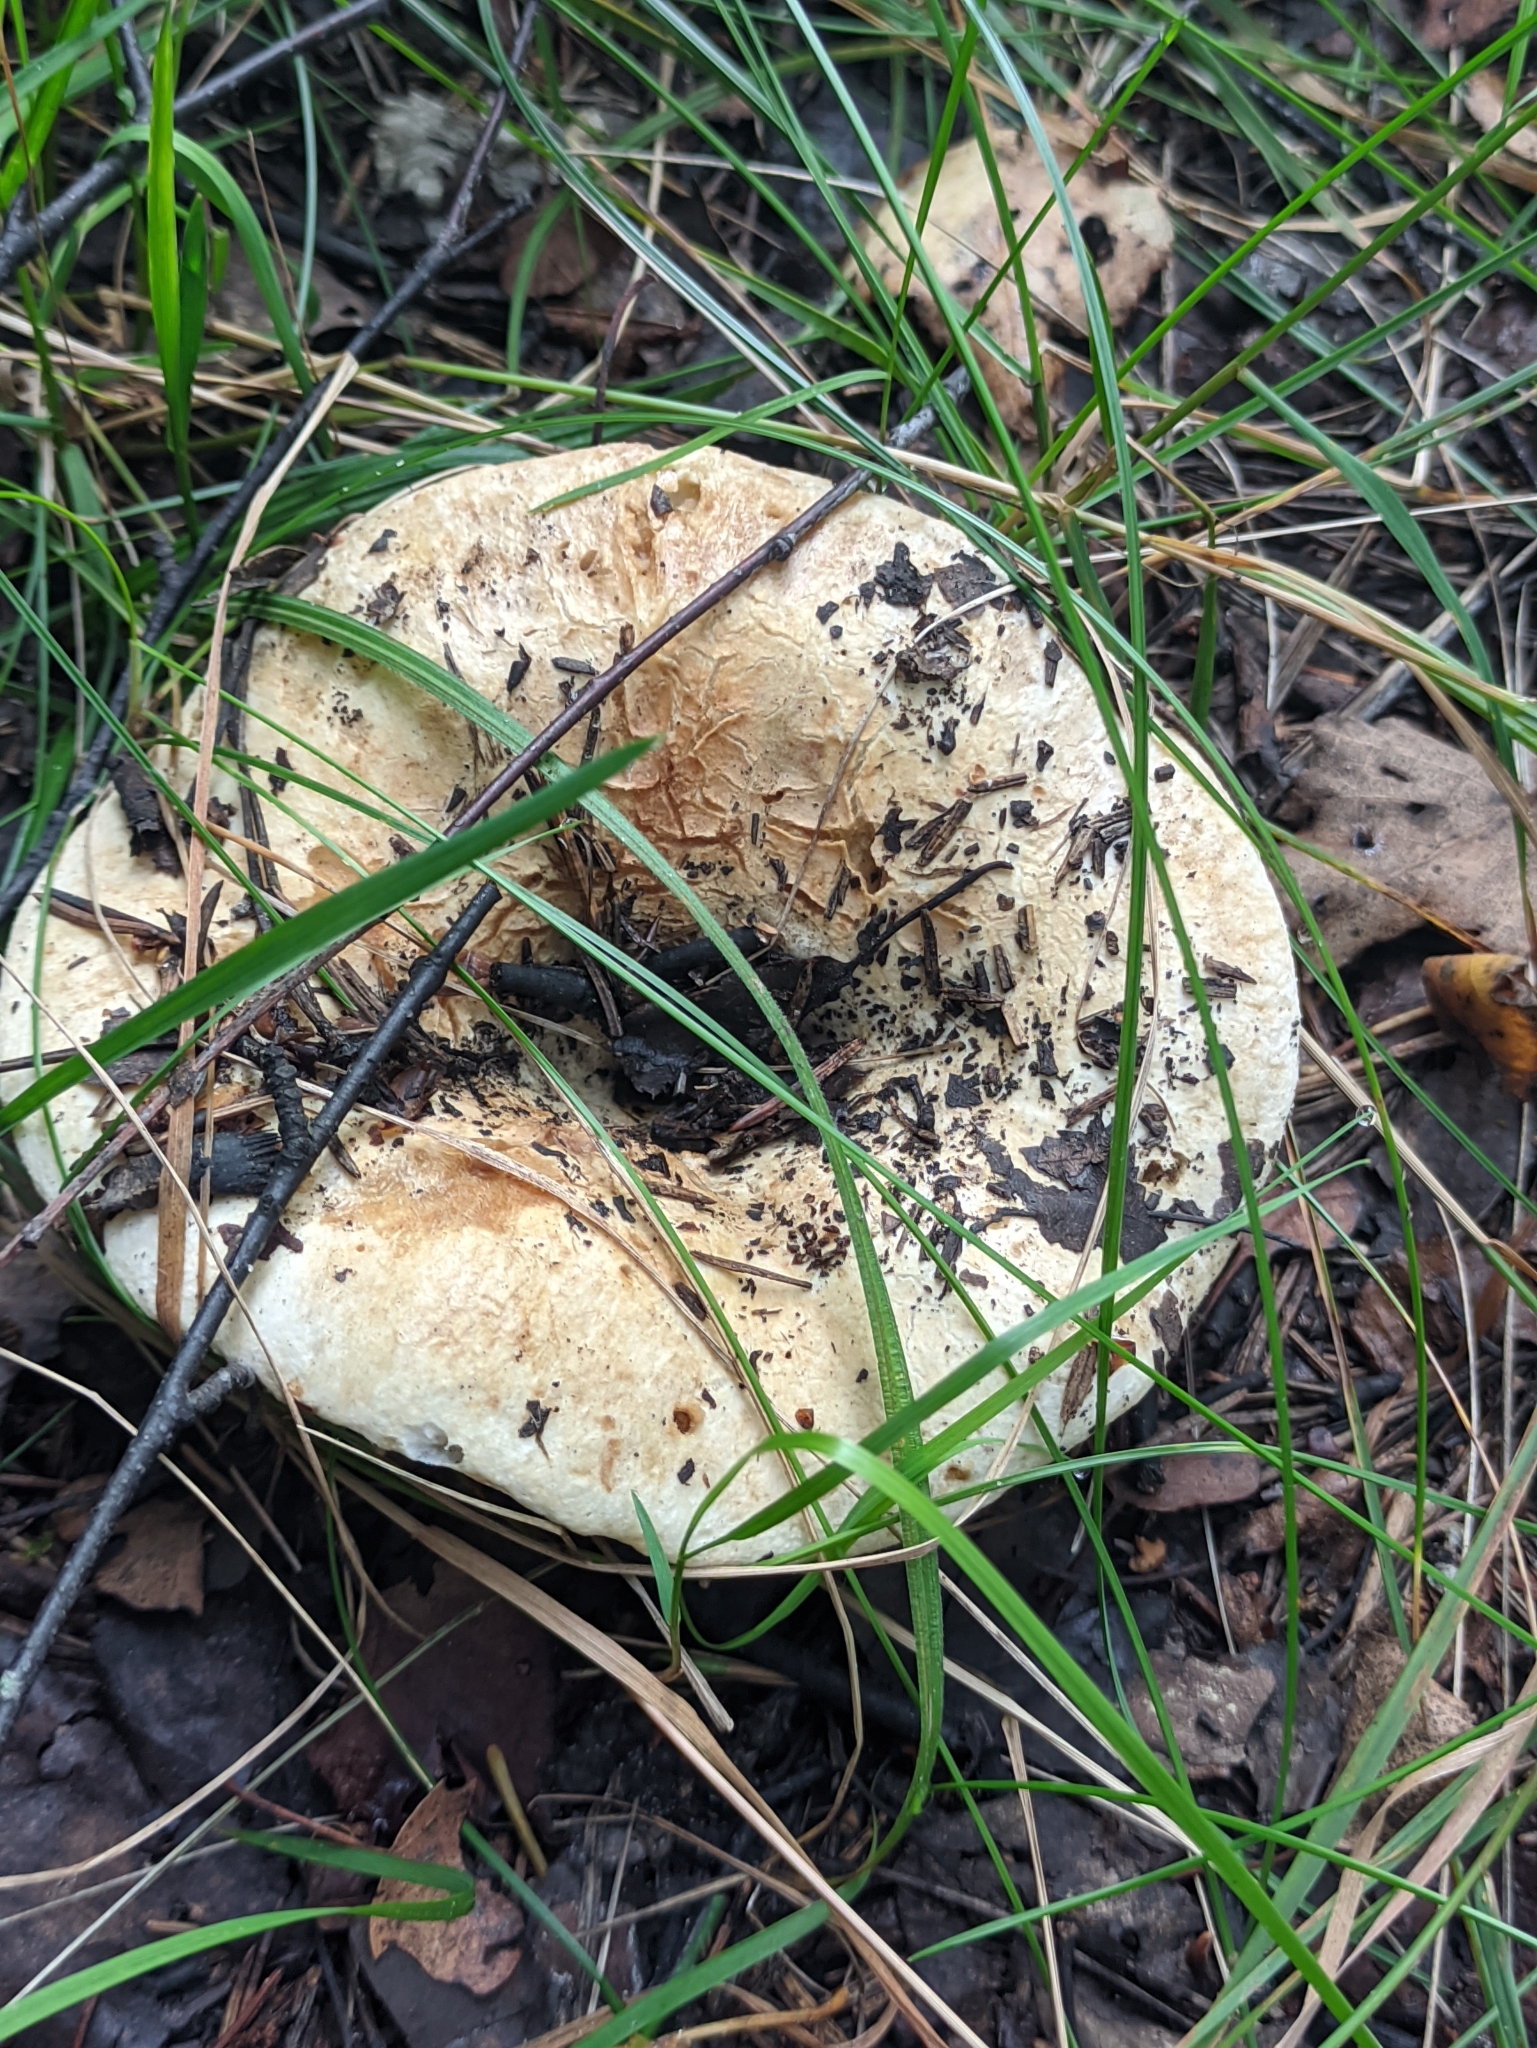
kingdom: Fungi
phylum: Basidiomycota
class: Agaricomycetes
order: Russulales
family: Russulaceae
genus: Russula
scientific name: Russula delica
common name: Milk white brittlegill
